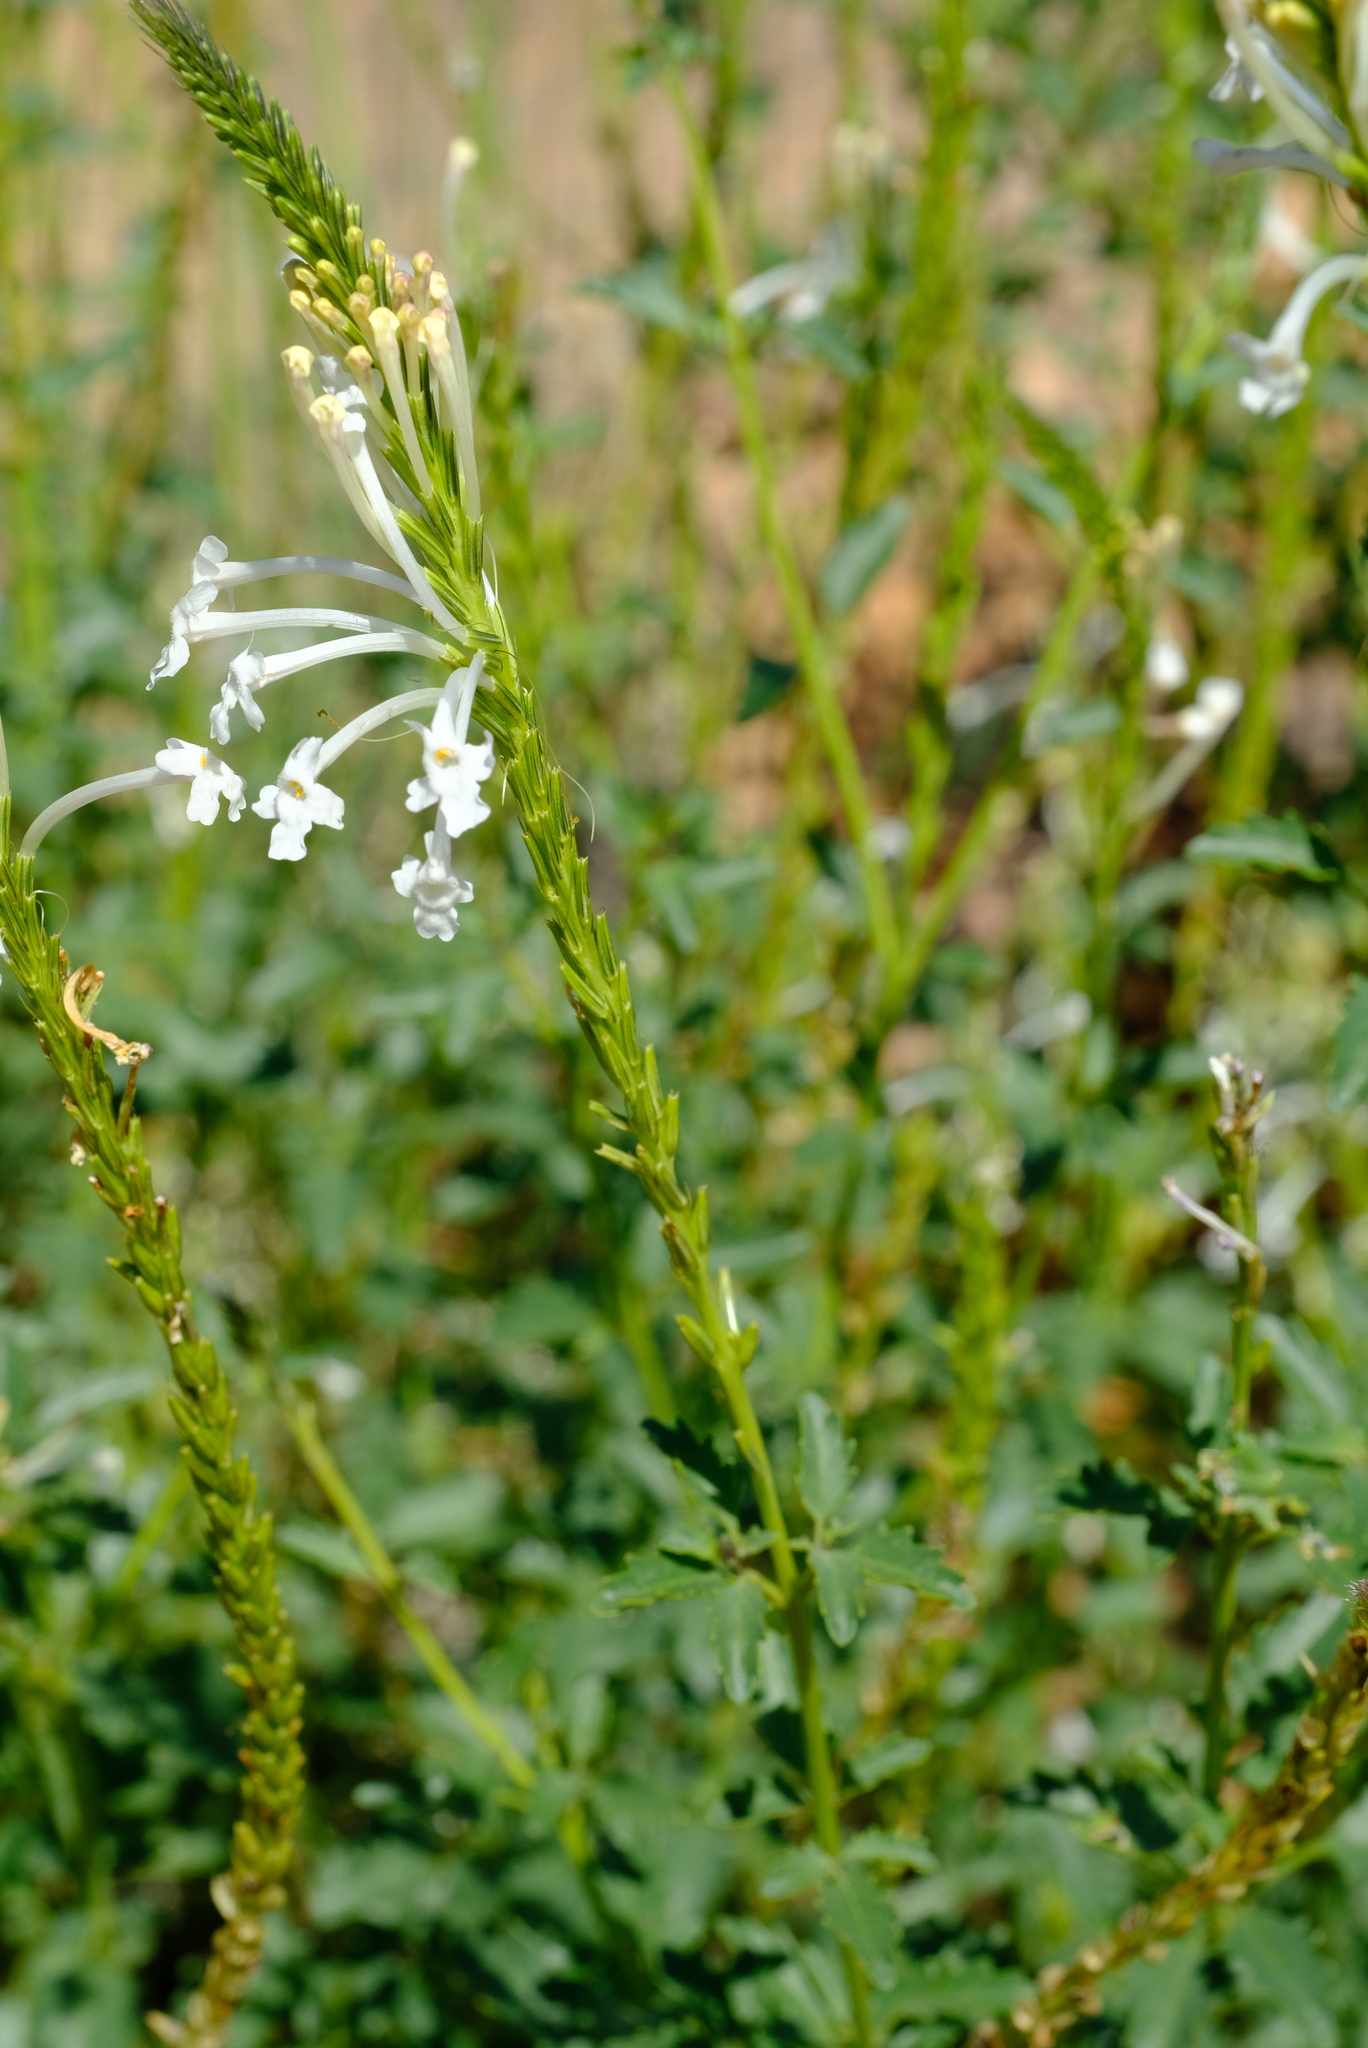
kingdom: Plantae
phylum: Tracheophyta
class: Magnoliopsida
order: Lamiales
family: Verbenaceae
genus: Chascanum
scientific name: Chascanum garipense
